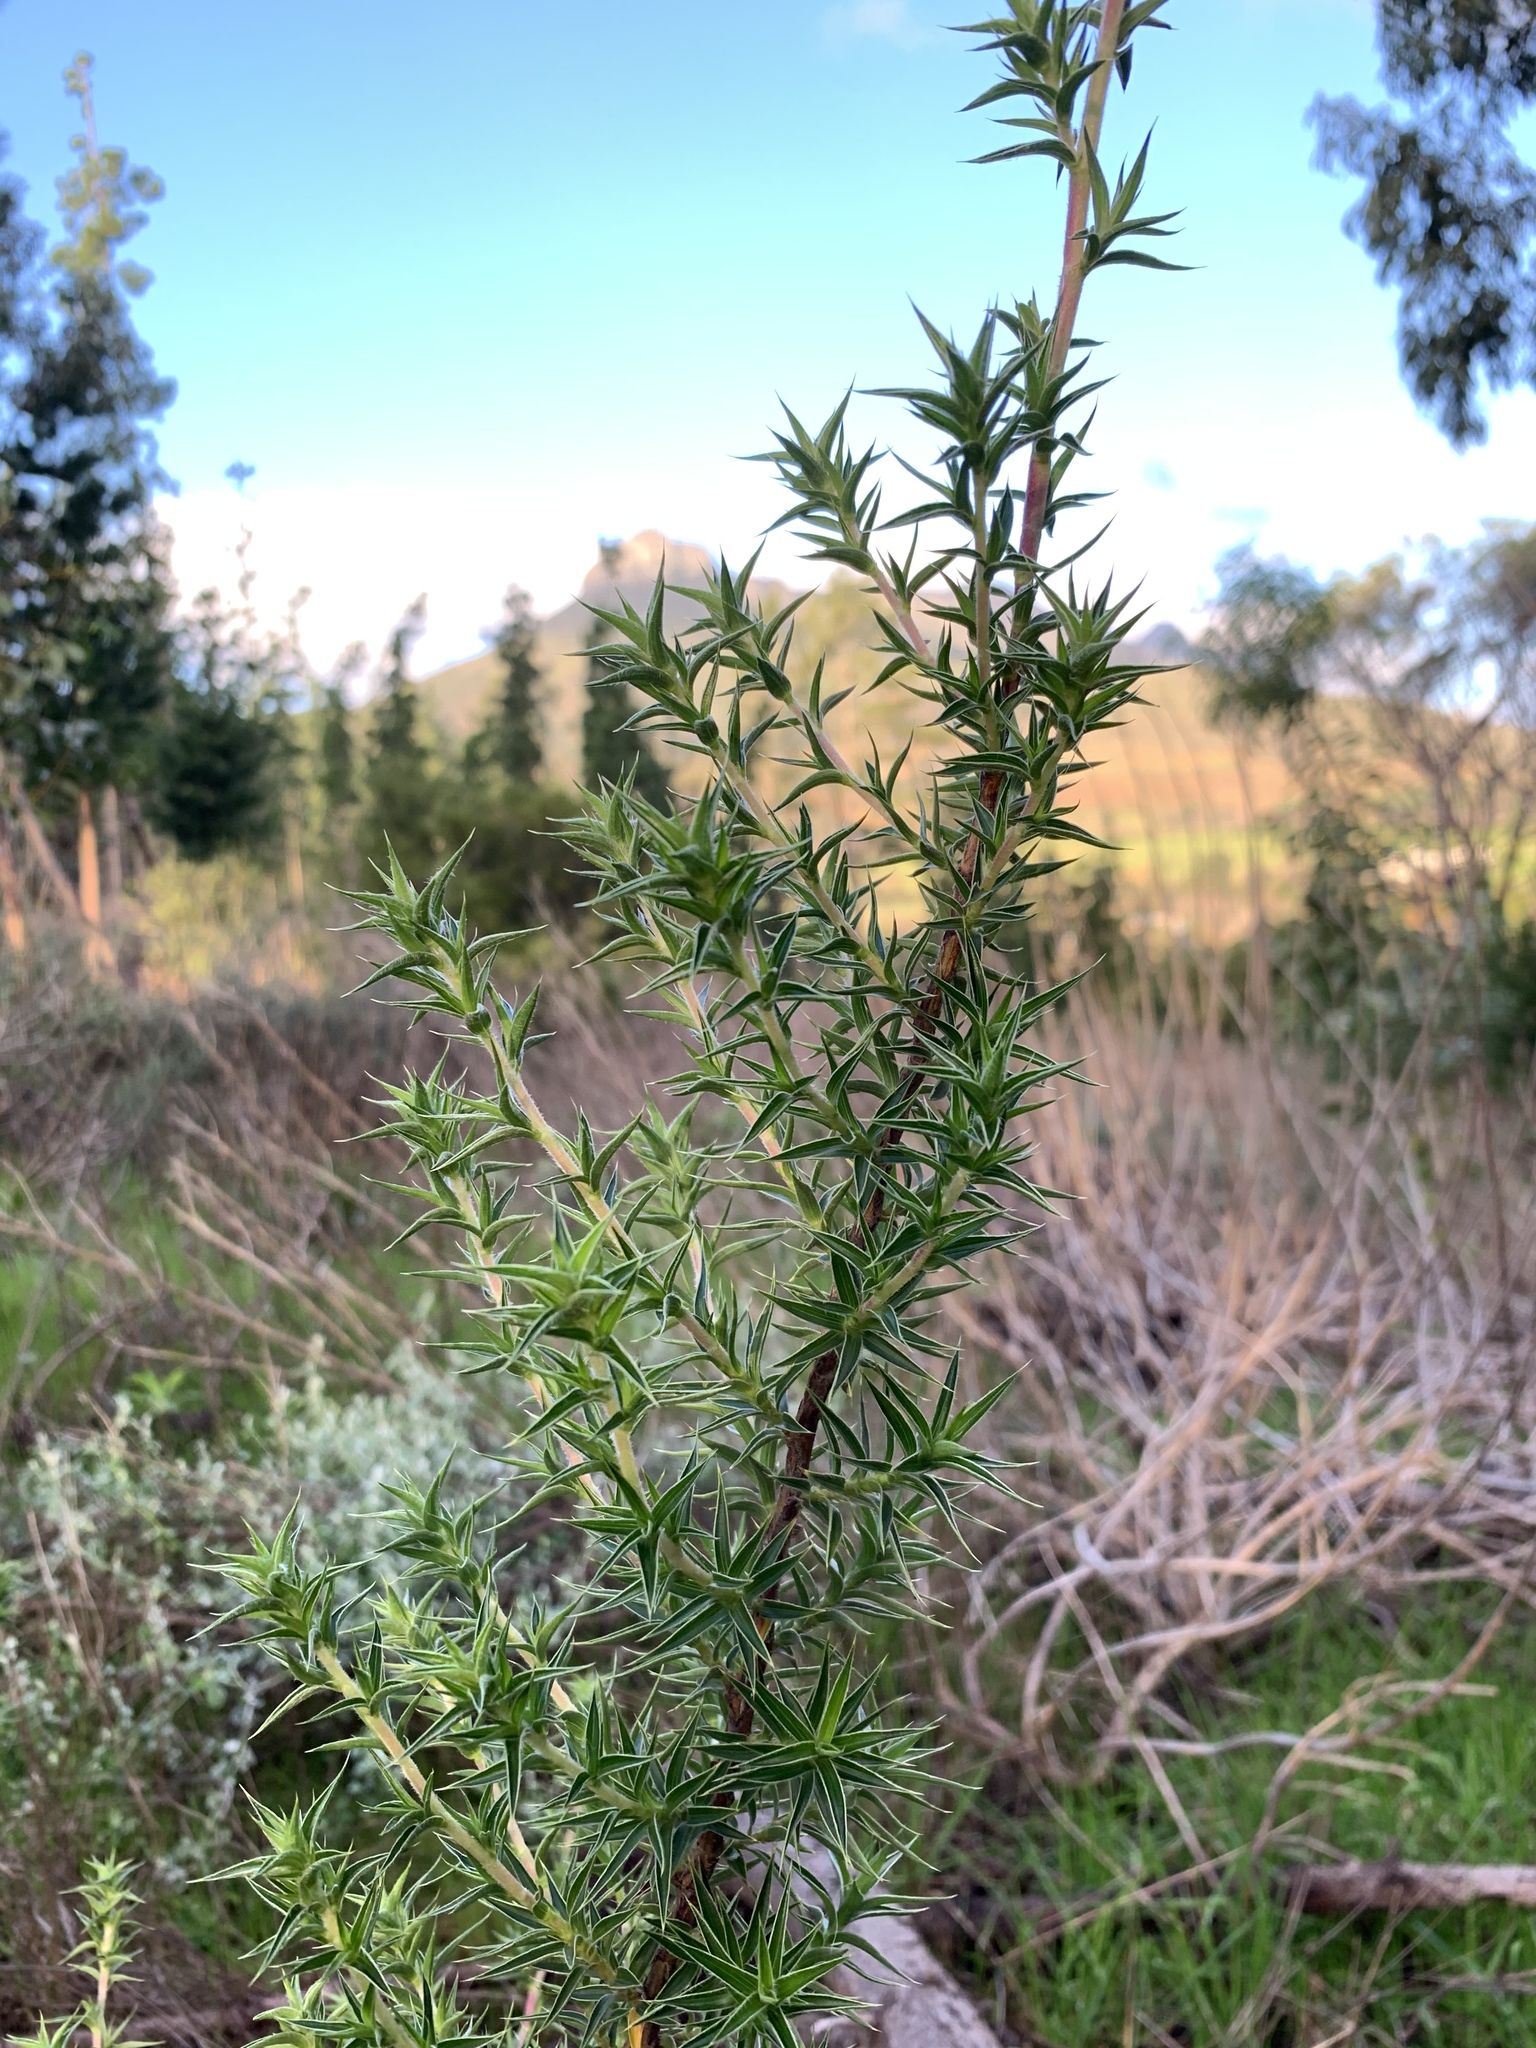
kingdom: Plantae
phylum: Tracheophyta
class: Magnoliopsida
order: Rosales
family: Rosaceae
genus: Cliffortia
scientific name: Cliffortia ruscifolia
